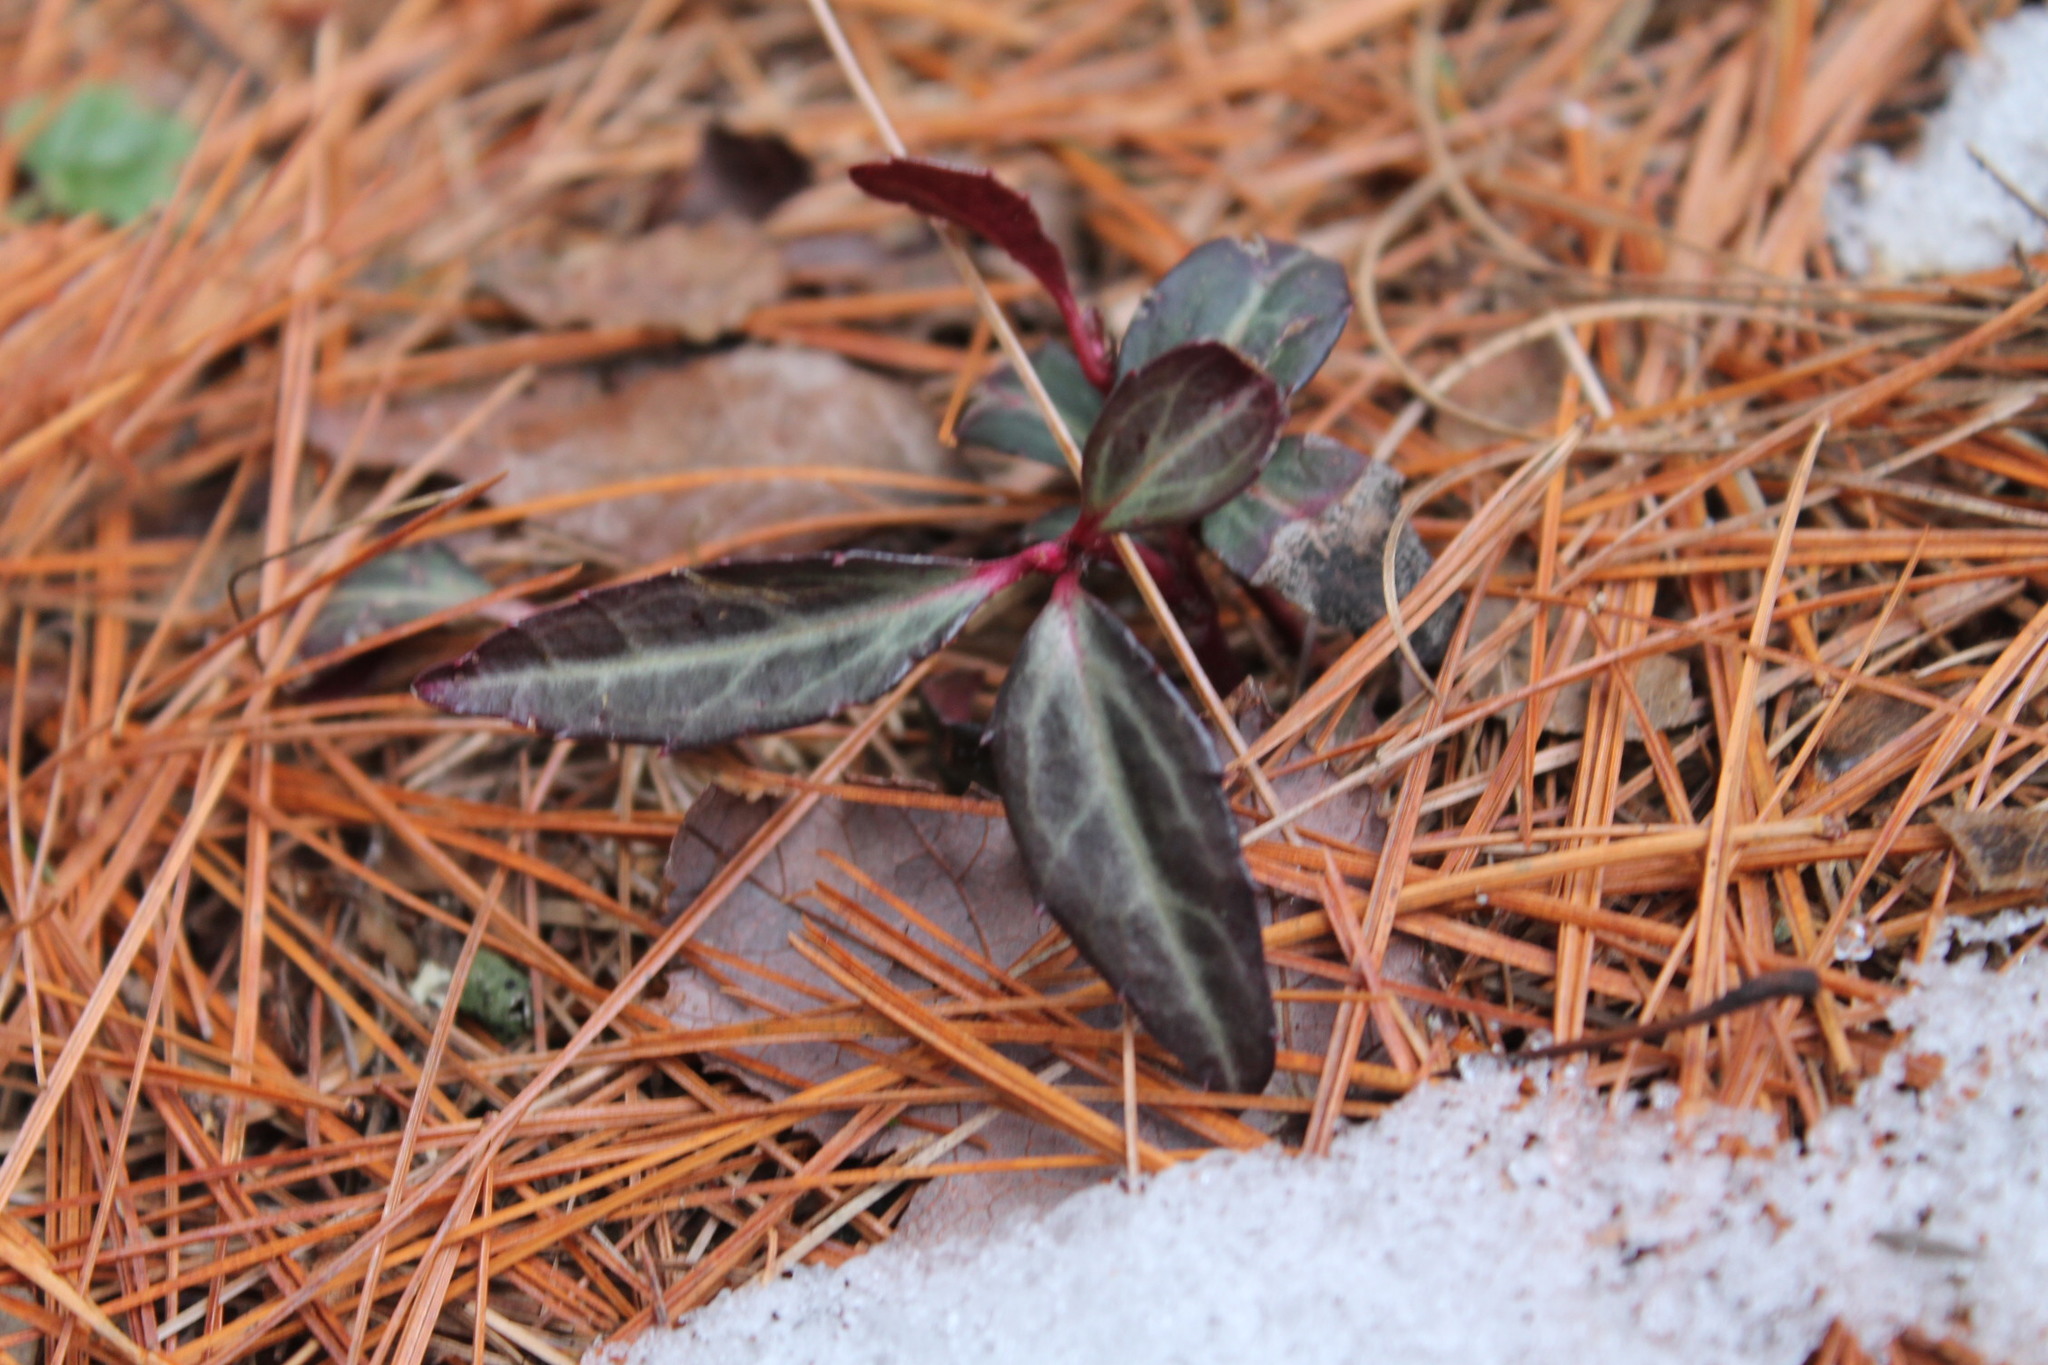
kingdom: Plantae
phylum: Tracheophyta
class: Magnoliopsida
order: Ericales
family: Ericaceae
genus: Chimaphila
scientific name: Chimaphila maculata
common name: Spotted pipsissewa
